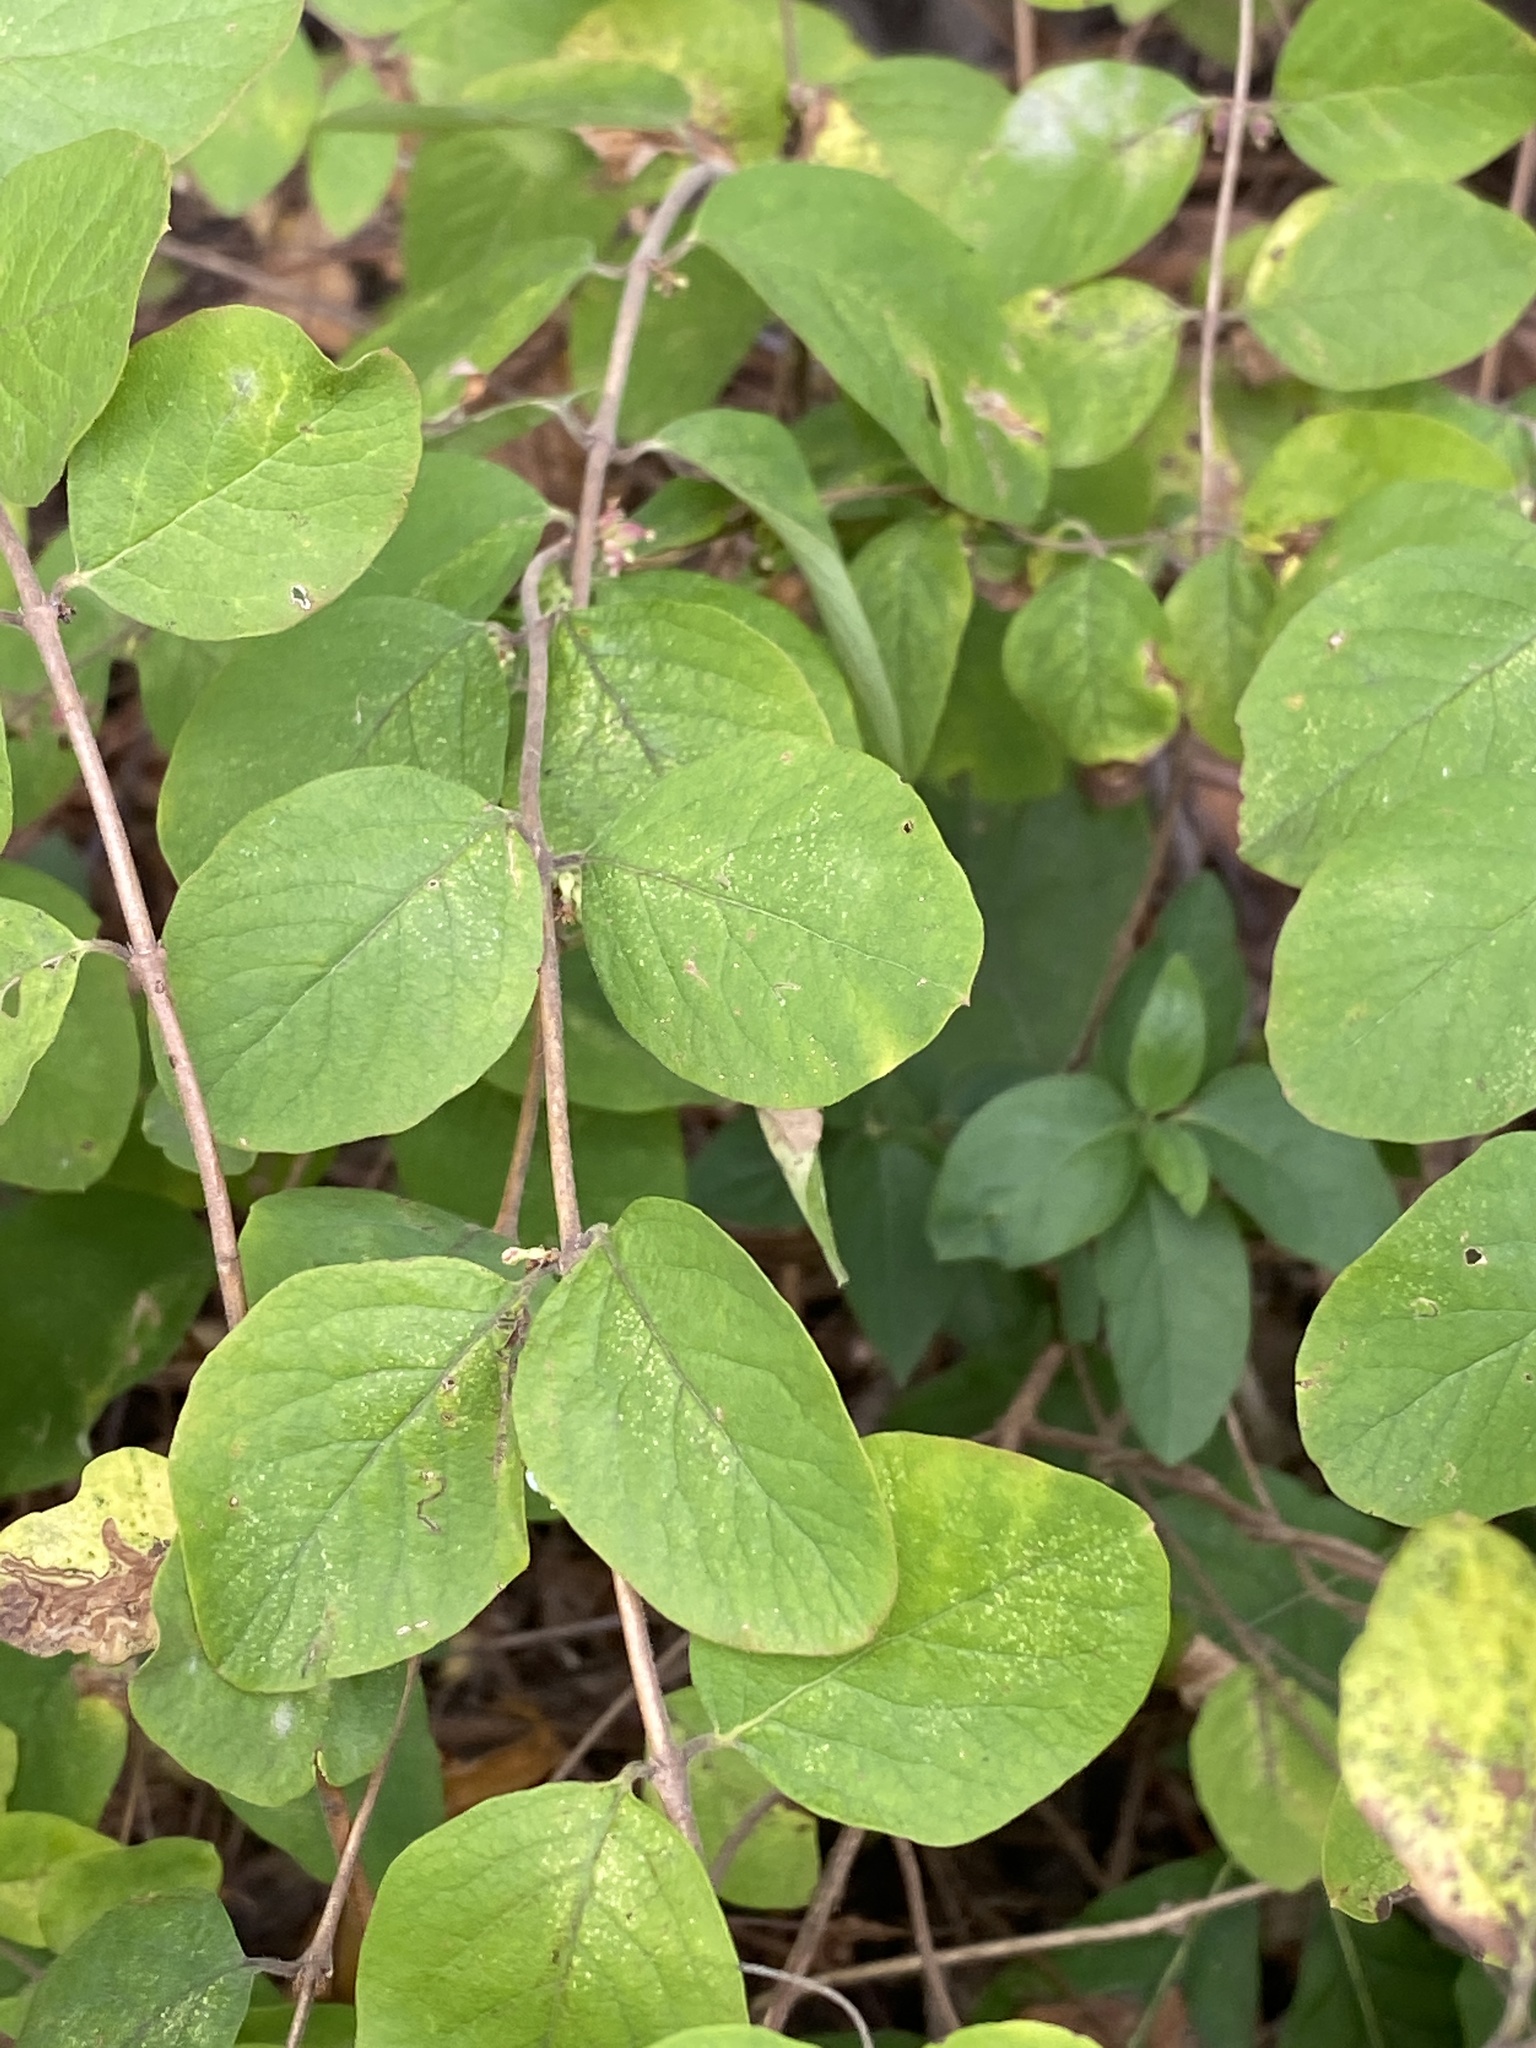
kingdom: Plantae
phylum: Tracheophyta
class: Magnoliopsida
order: Dipsacales
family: Caprifoliaceae
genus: Symphoricarpos
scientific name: Symphoricarpos orbiculatus
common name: Coralberry
